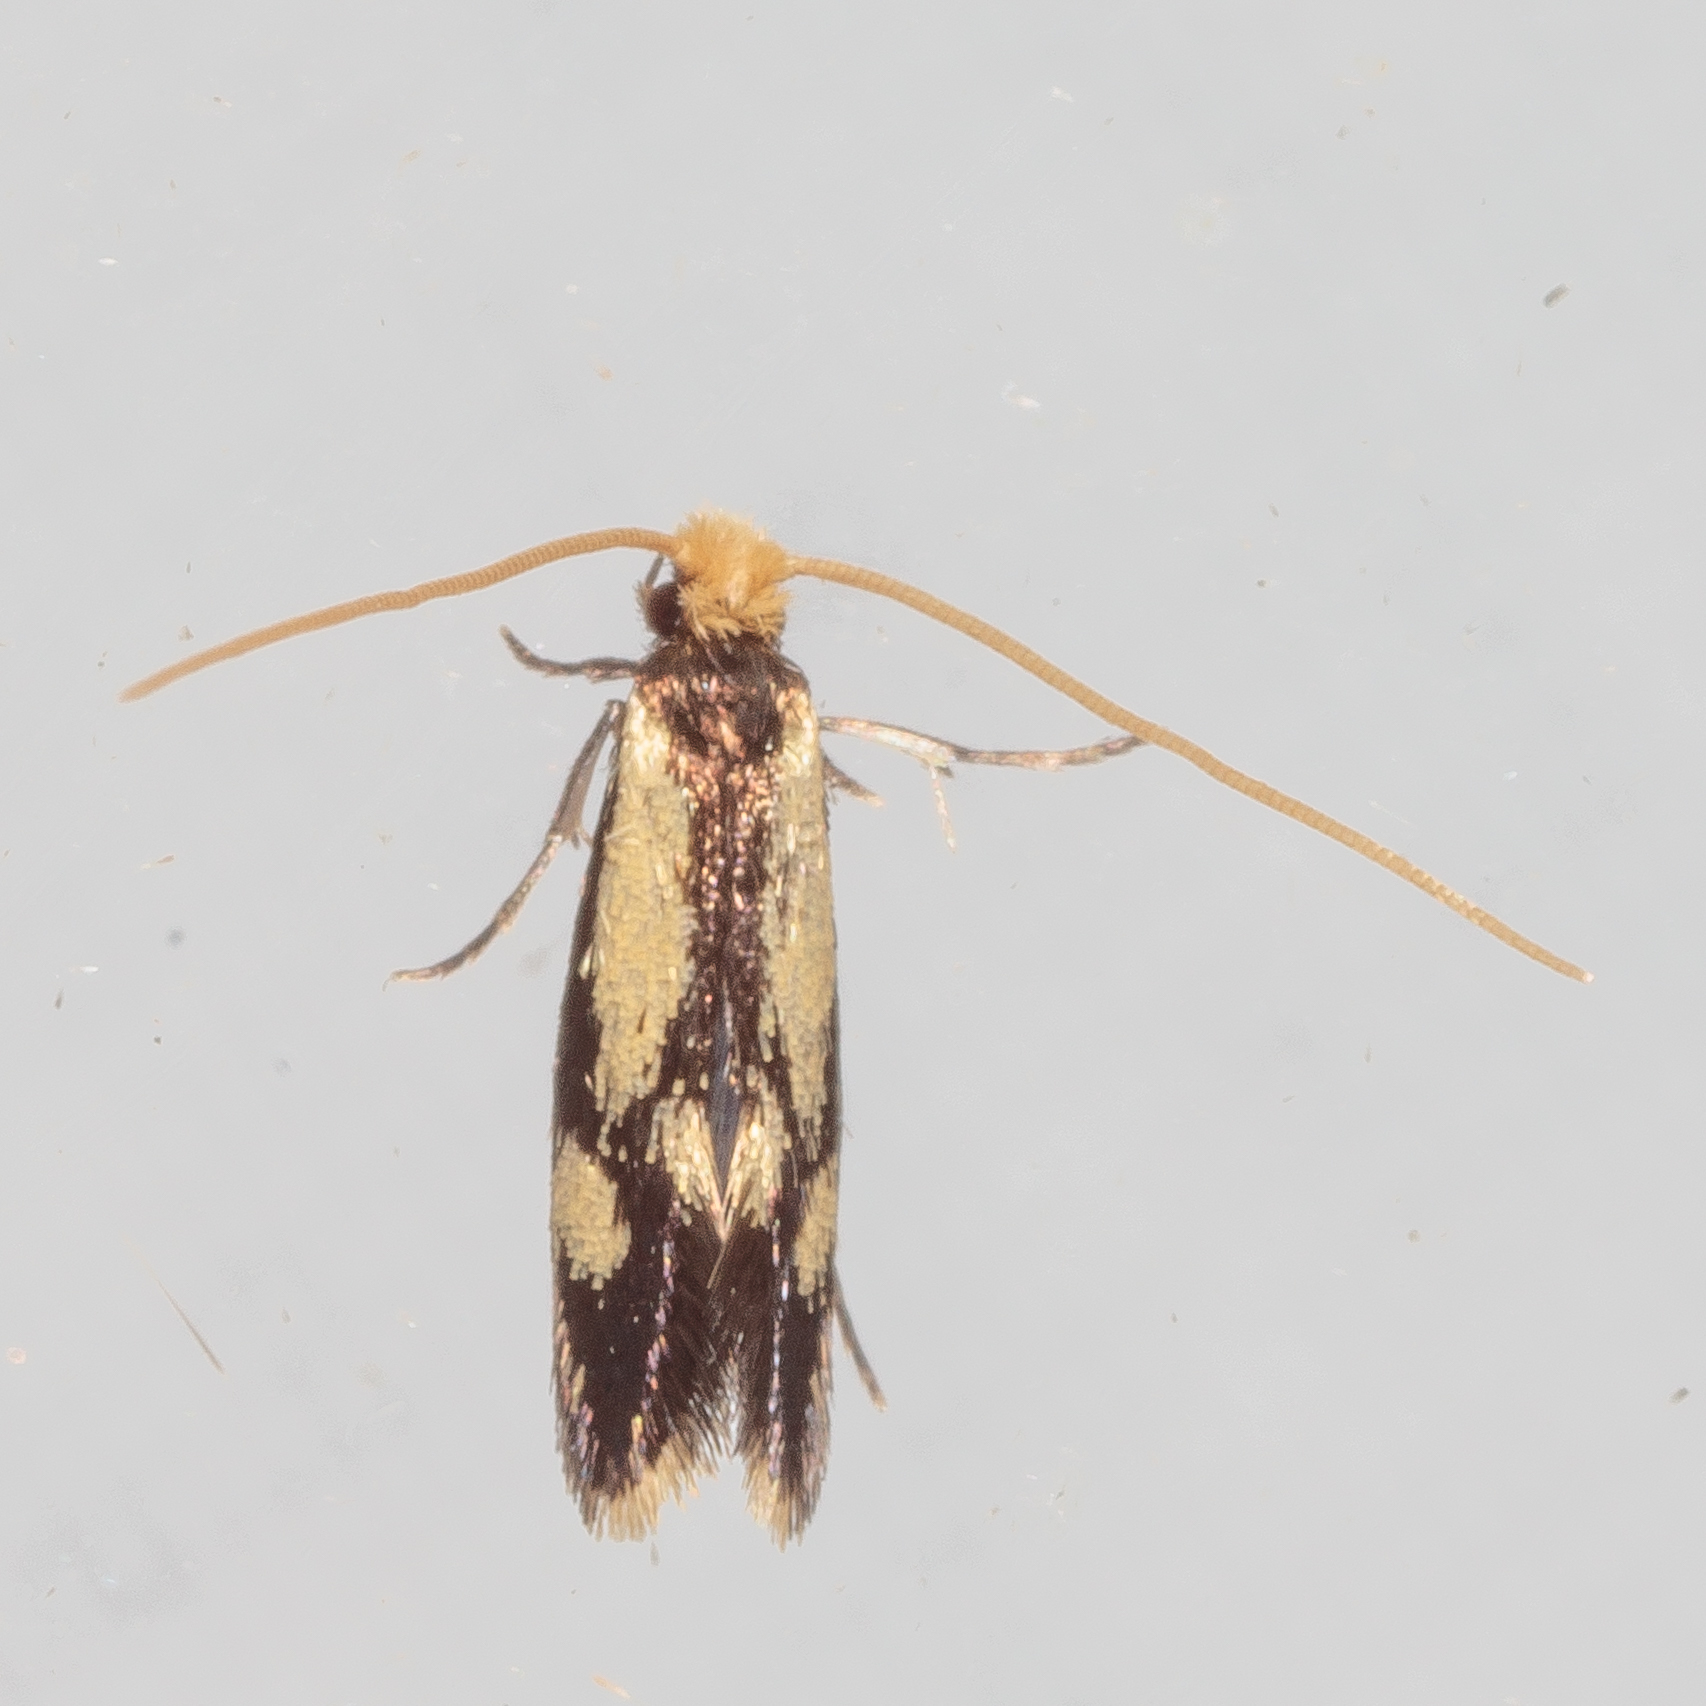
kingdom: Animalia
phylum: Arthropoda
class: Insecta
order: Lepidoptera
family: Meessiidae
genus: Isocorypha
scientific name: Isocorypha mediostriatella
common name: Old gold isocorypha moth
